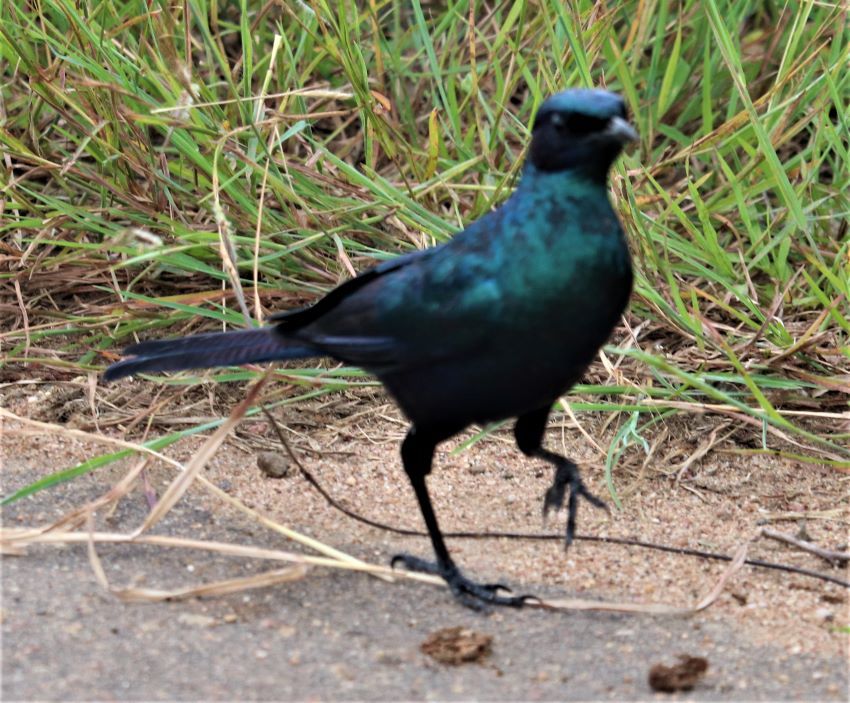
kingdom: Animalia
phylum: Chordata
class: Aves
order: Passeriformes
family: Sturnidae
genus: Lamprotornis
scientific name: Lamprotornis australis
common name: Burchell's starling
